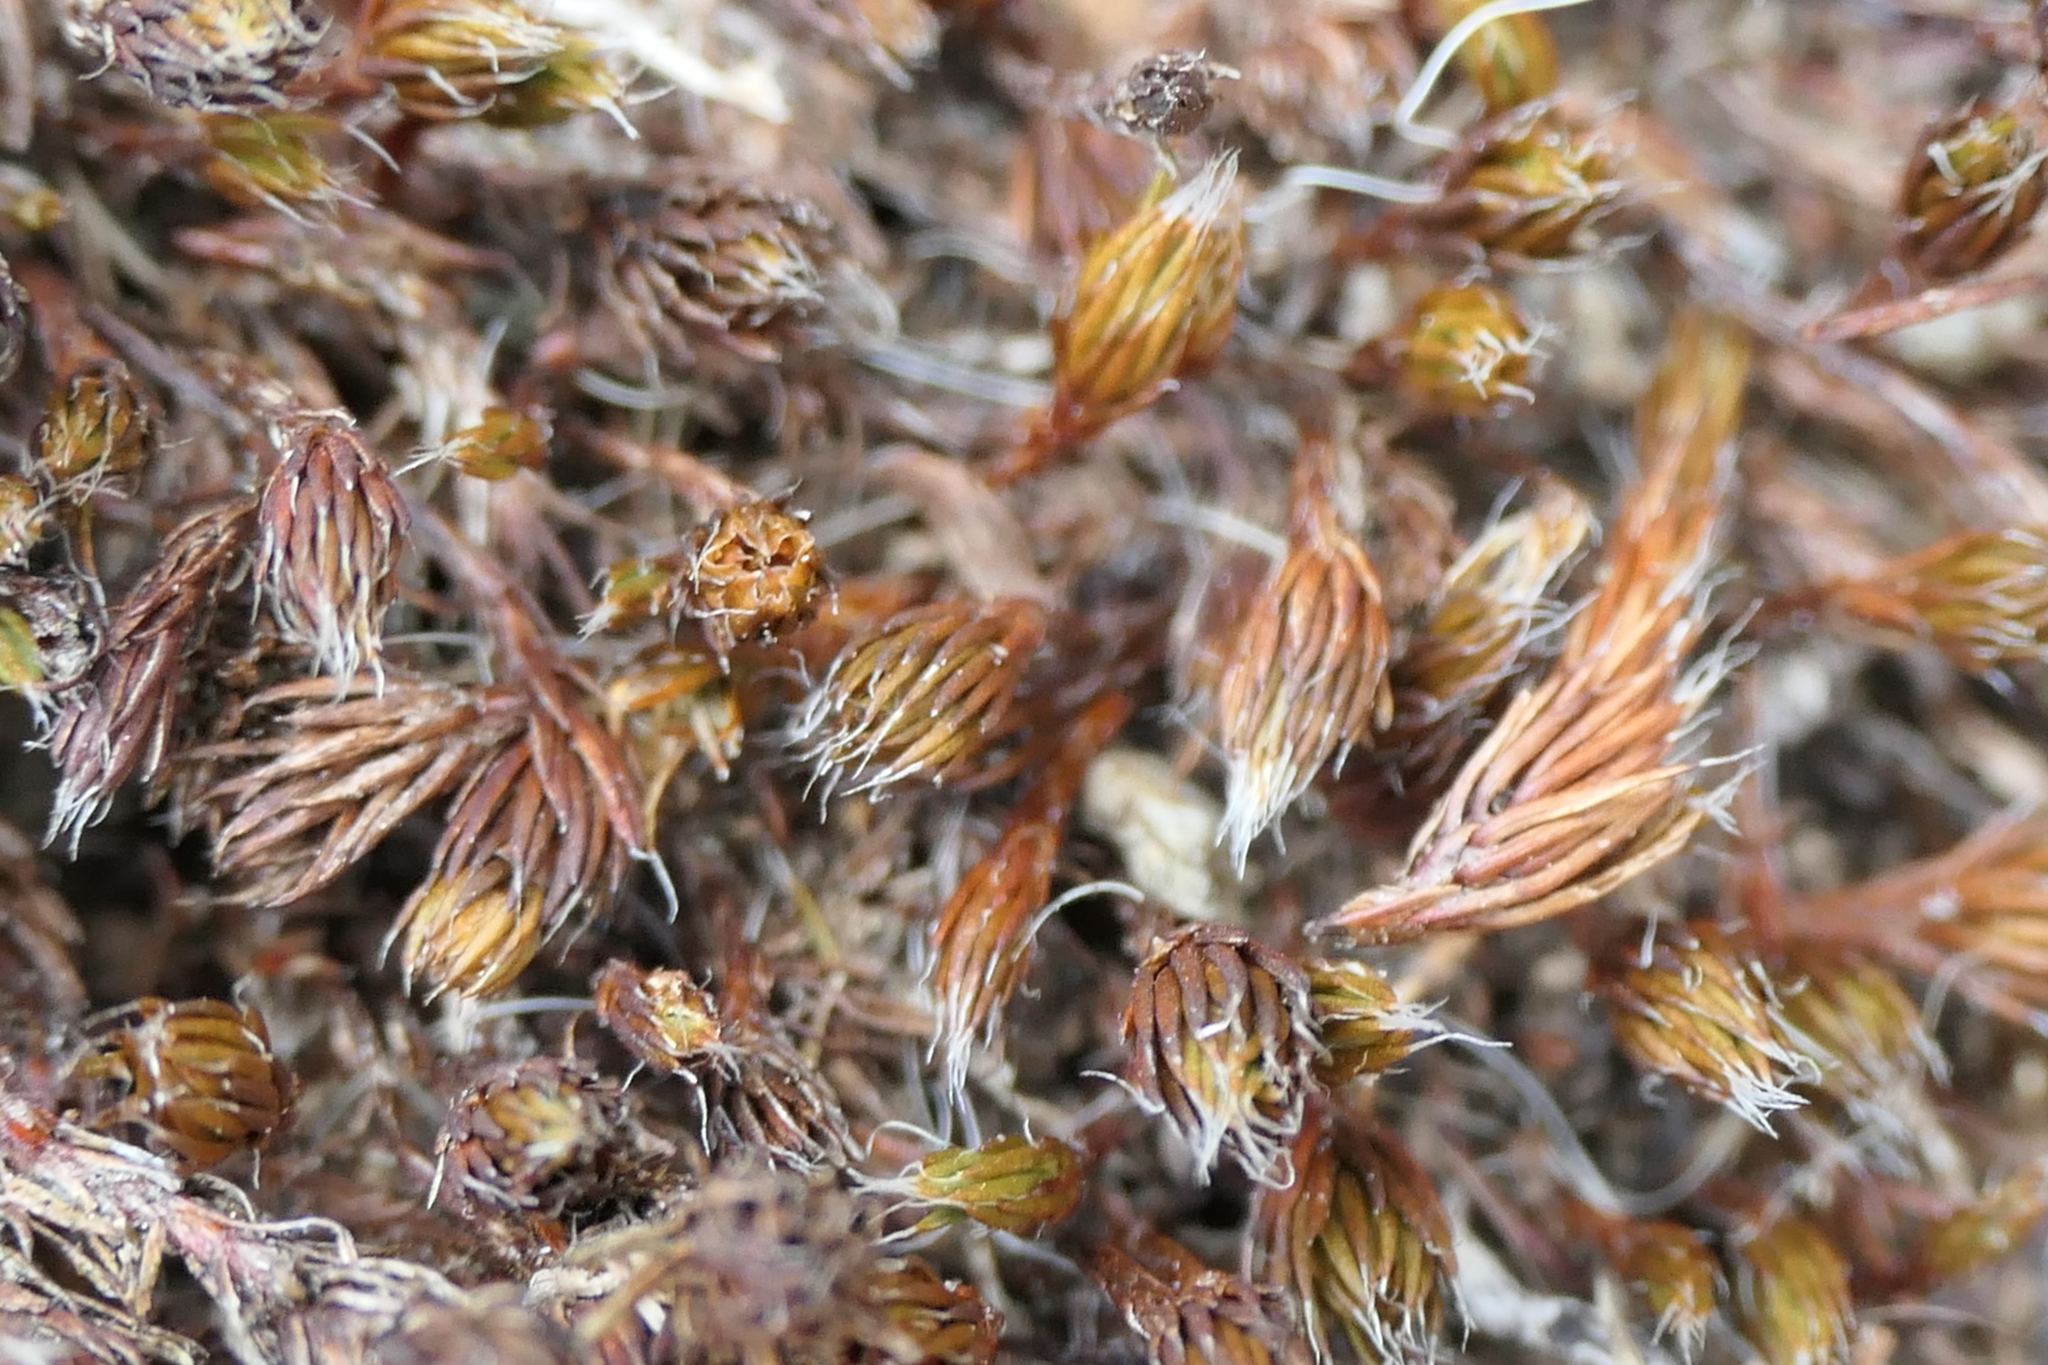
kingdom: Plantae
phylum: Bryophyta
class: Polytrichopsida
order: Polytrichales
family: Polytrichaceae
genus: Polytrichum
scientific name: Polytrichum piliferum
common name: Bristly haircap
